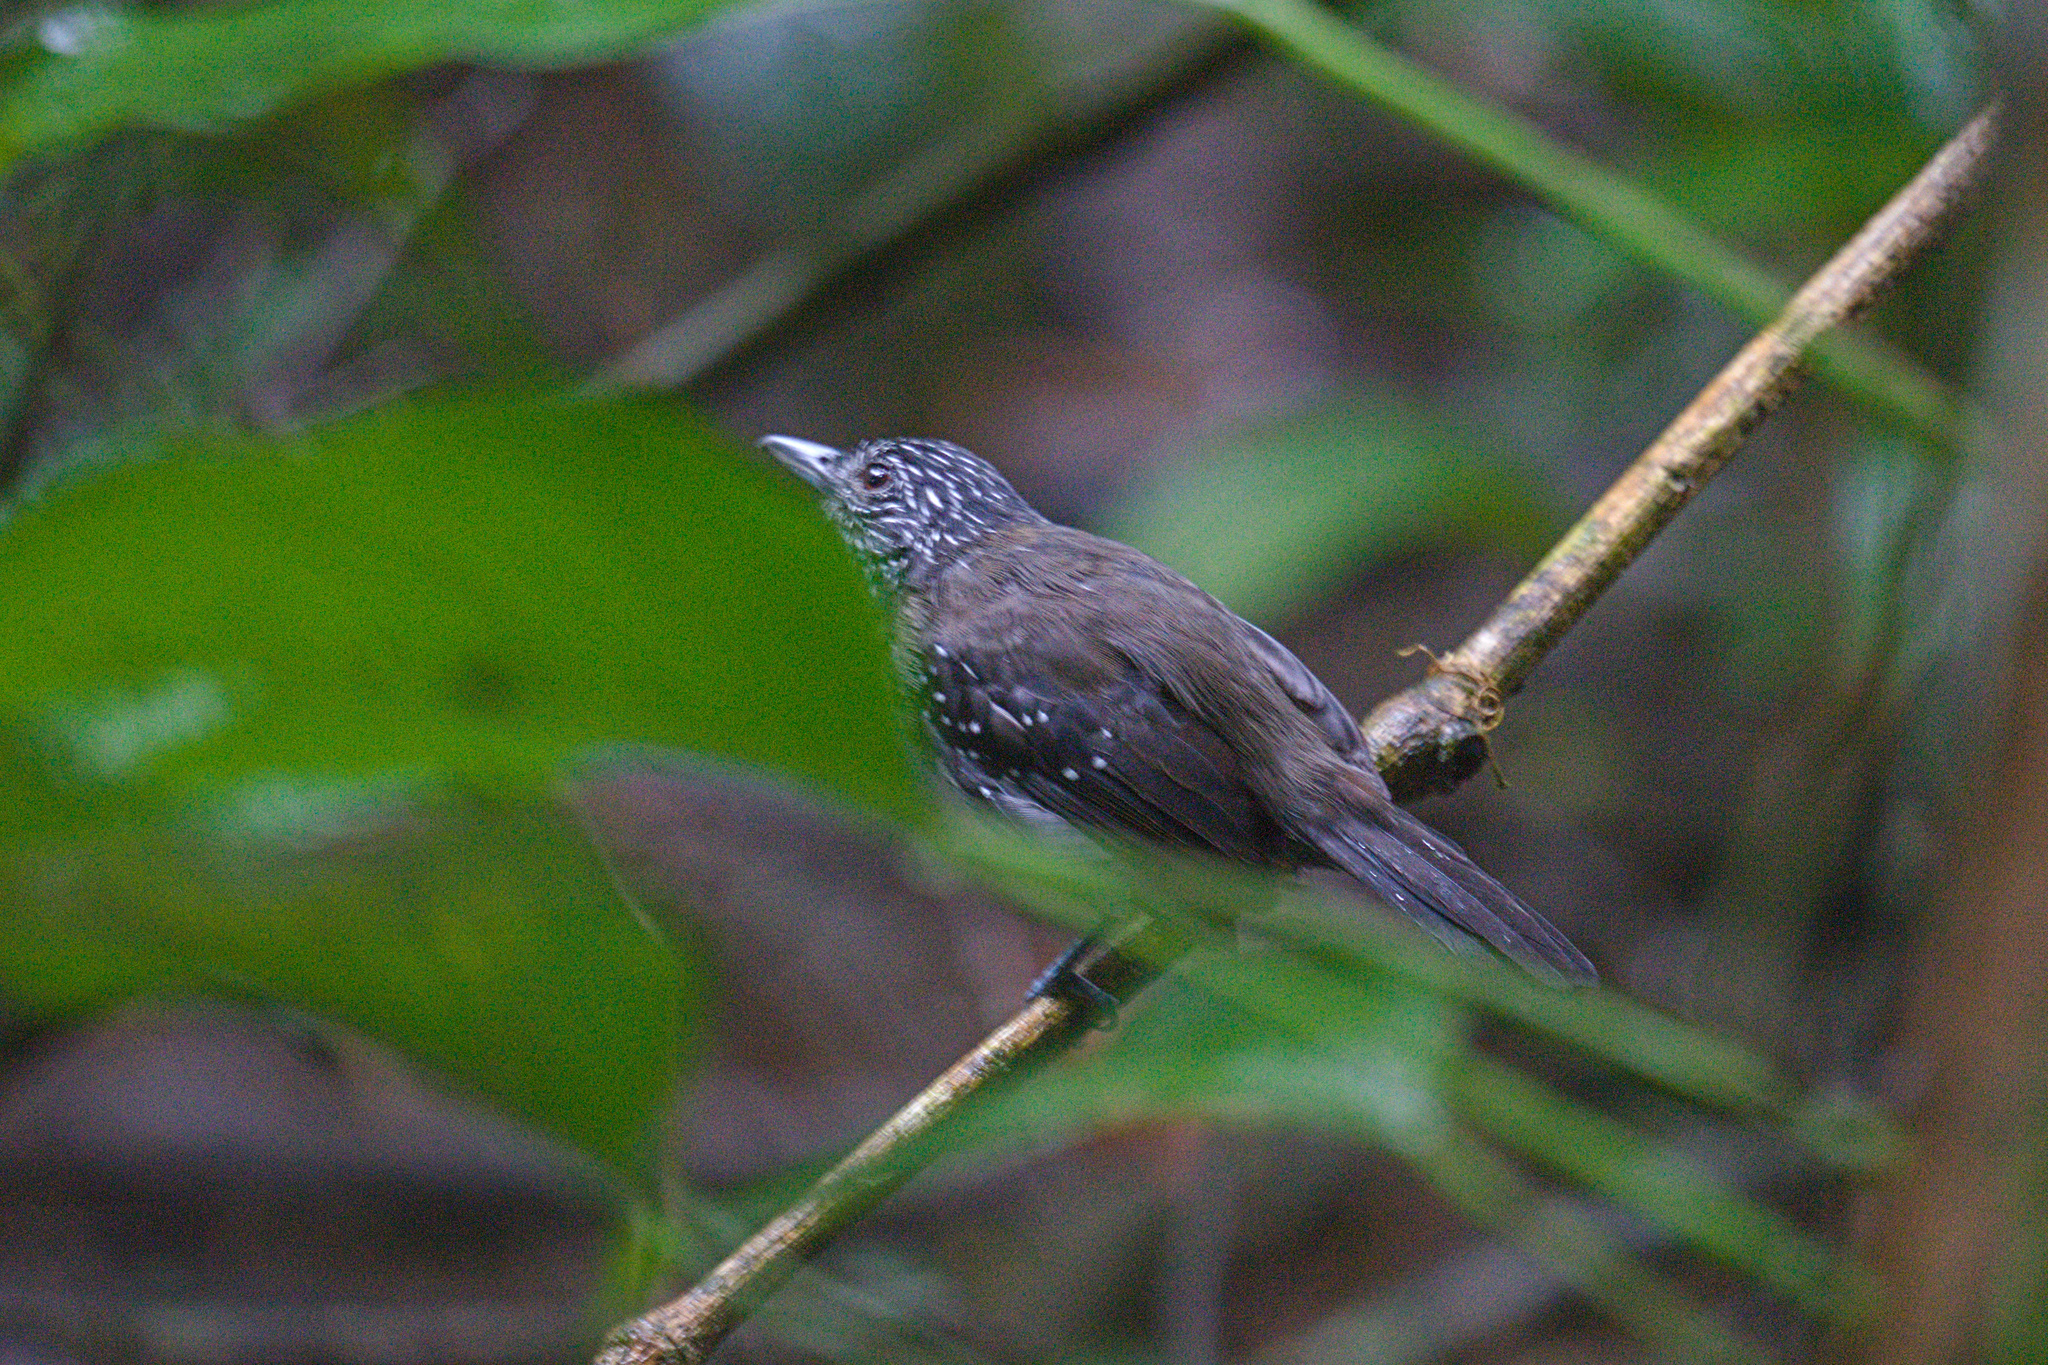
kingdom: Animalia
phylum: Chordata
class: Aves
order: Passeriformes
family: Thamnophilidae
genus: Thamnophilus
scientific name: Thamnophilus bridgesi
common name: Black-hooded antshrike
